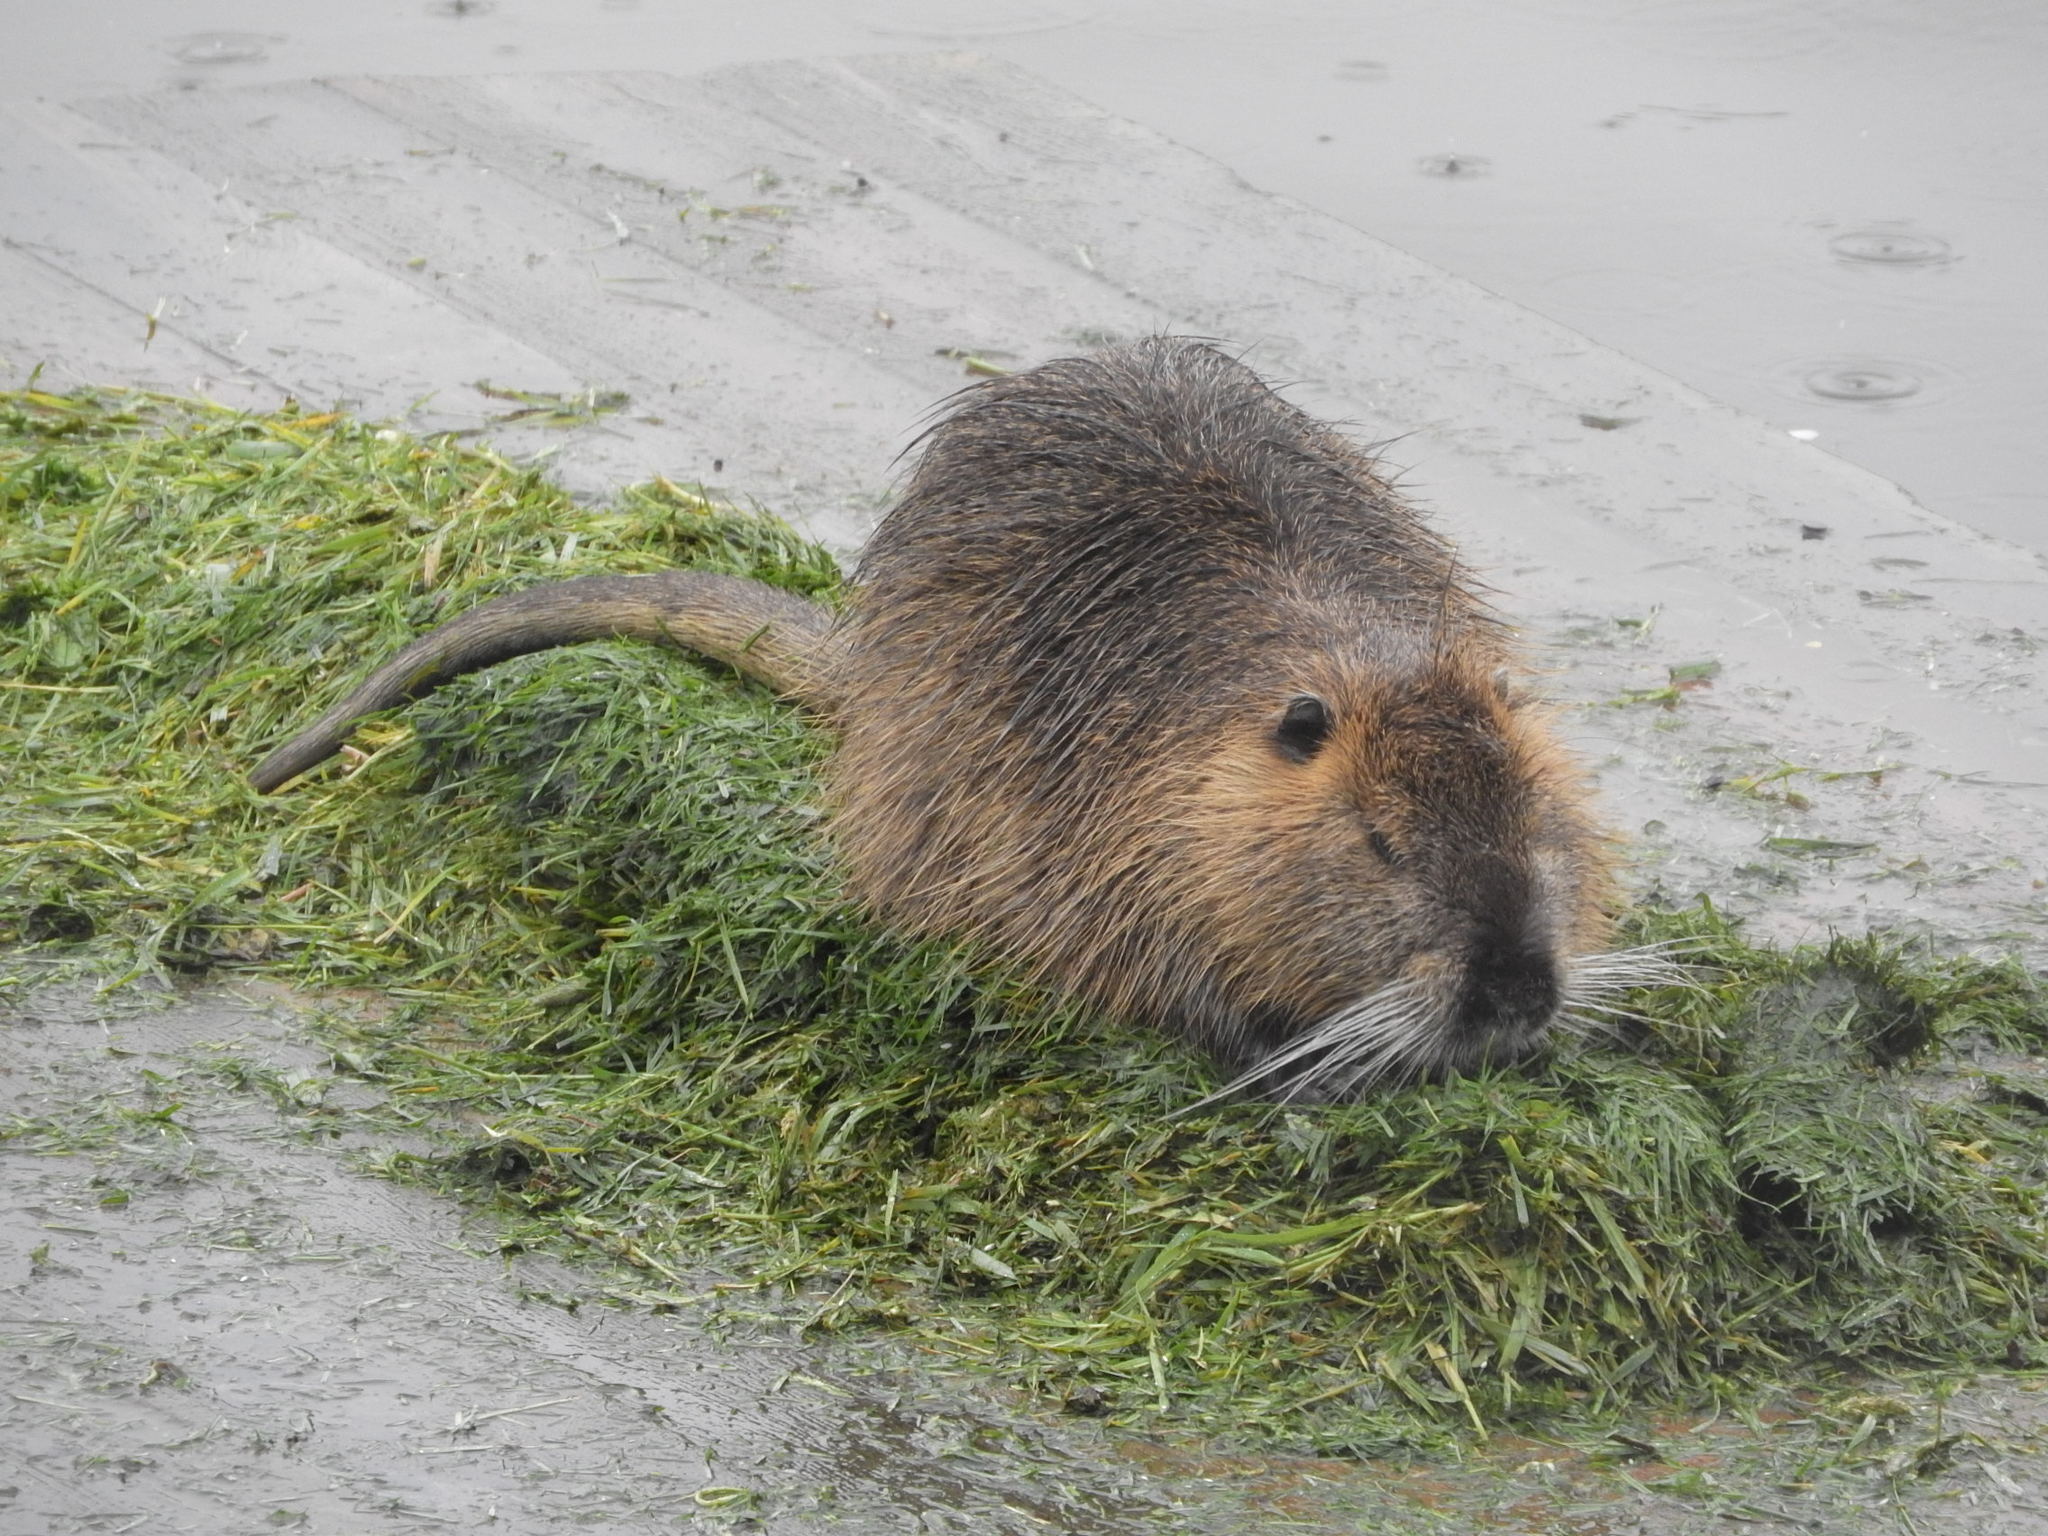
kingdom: Animalia
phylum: Chordata
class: Mammalia
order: Rodentia
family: Myocastoridae
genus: Myocastor
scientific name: Myocastor coypus
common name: Coypu
